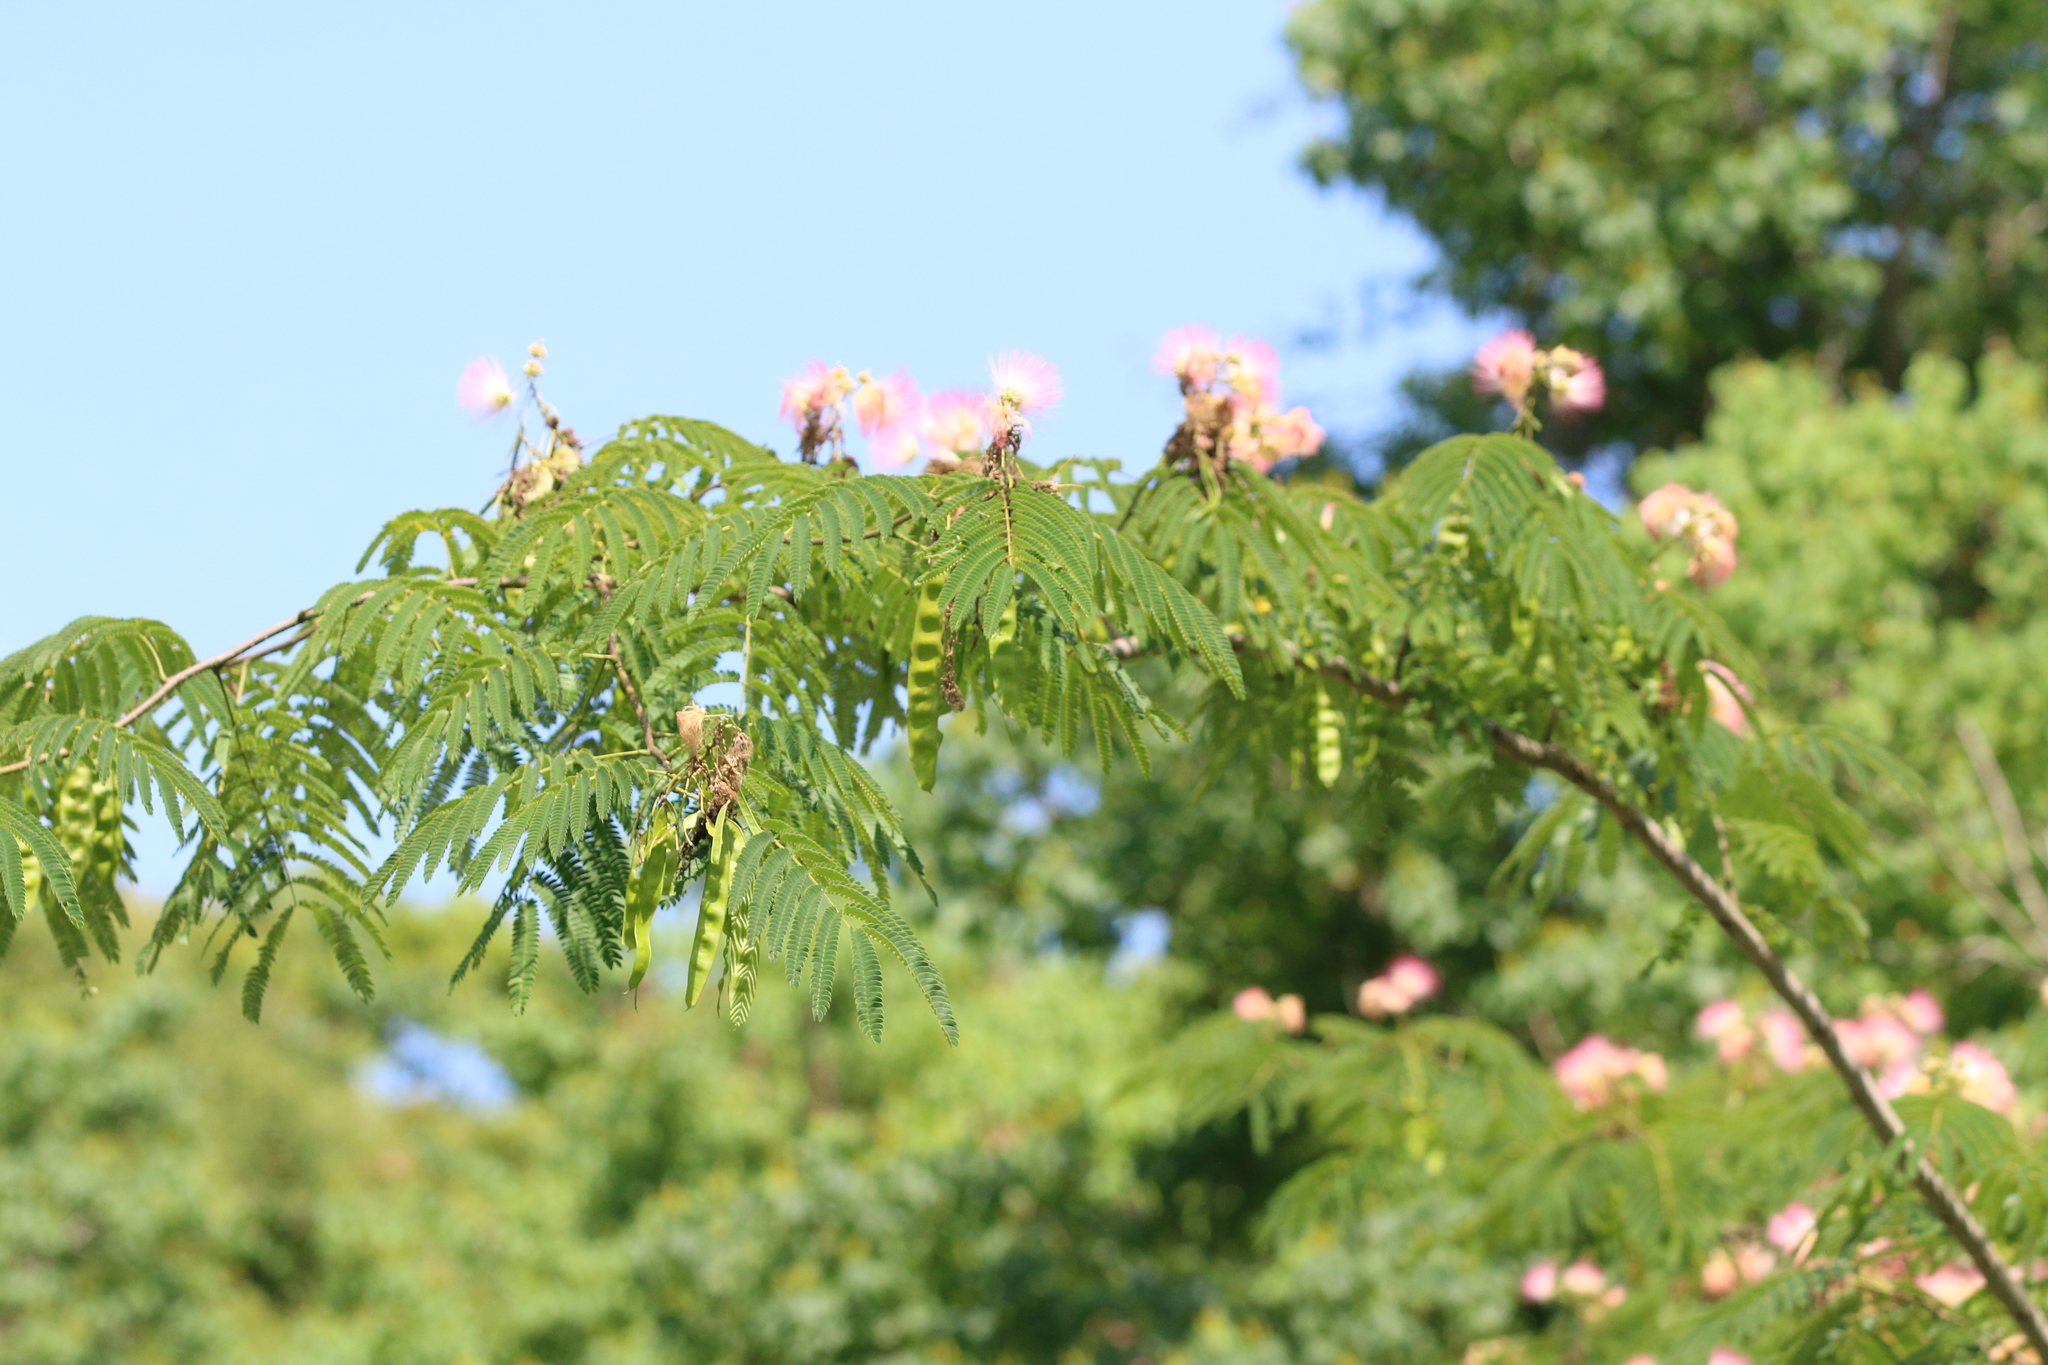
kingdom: Plantae
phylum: Tracheophyta
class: Magnoliopsida
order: Fabales
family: Fabaceae
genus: Albizia
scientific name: Albizia julibrissin
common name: Silktree
